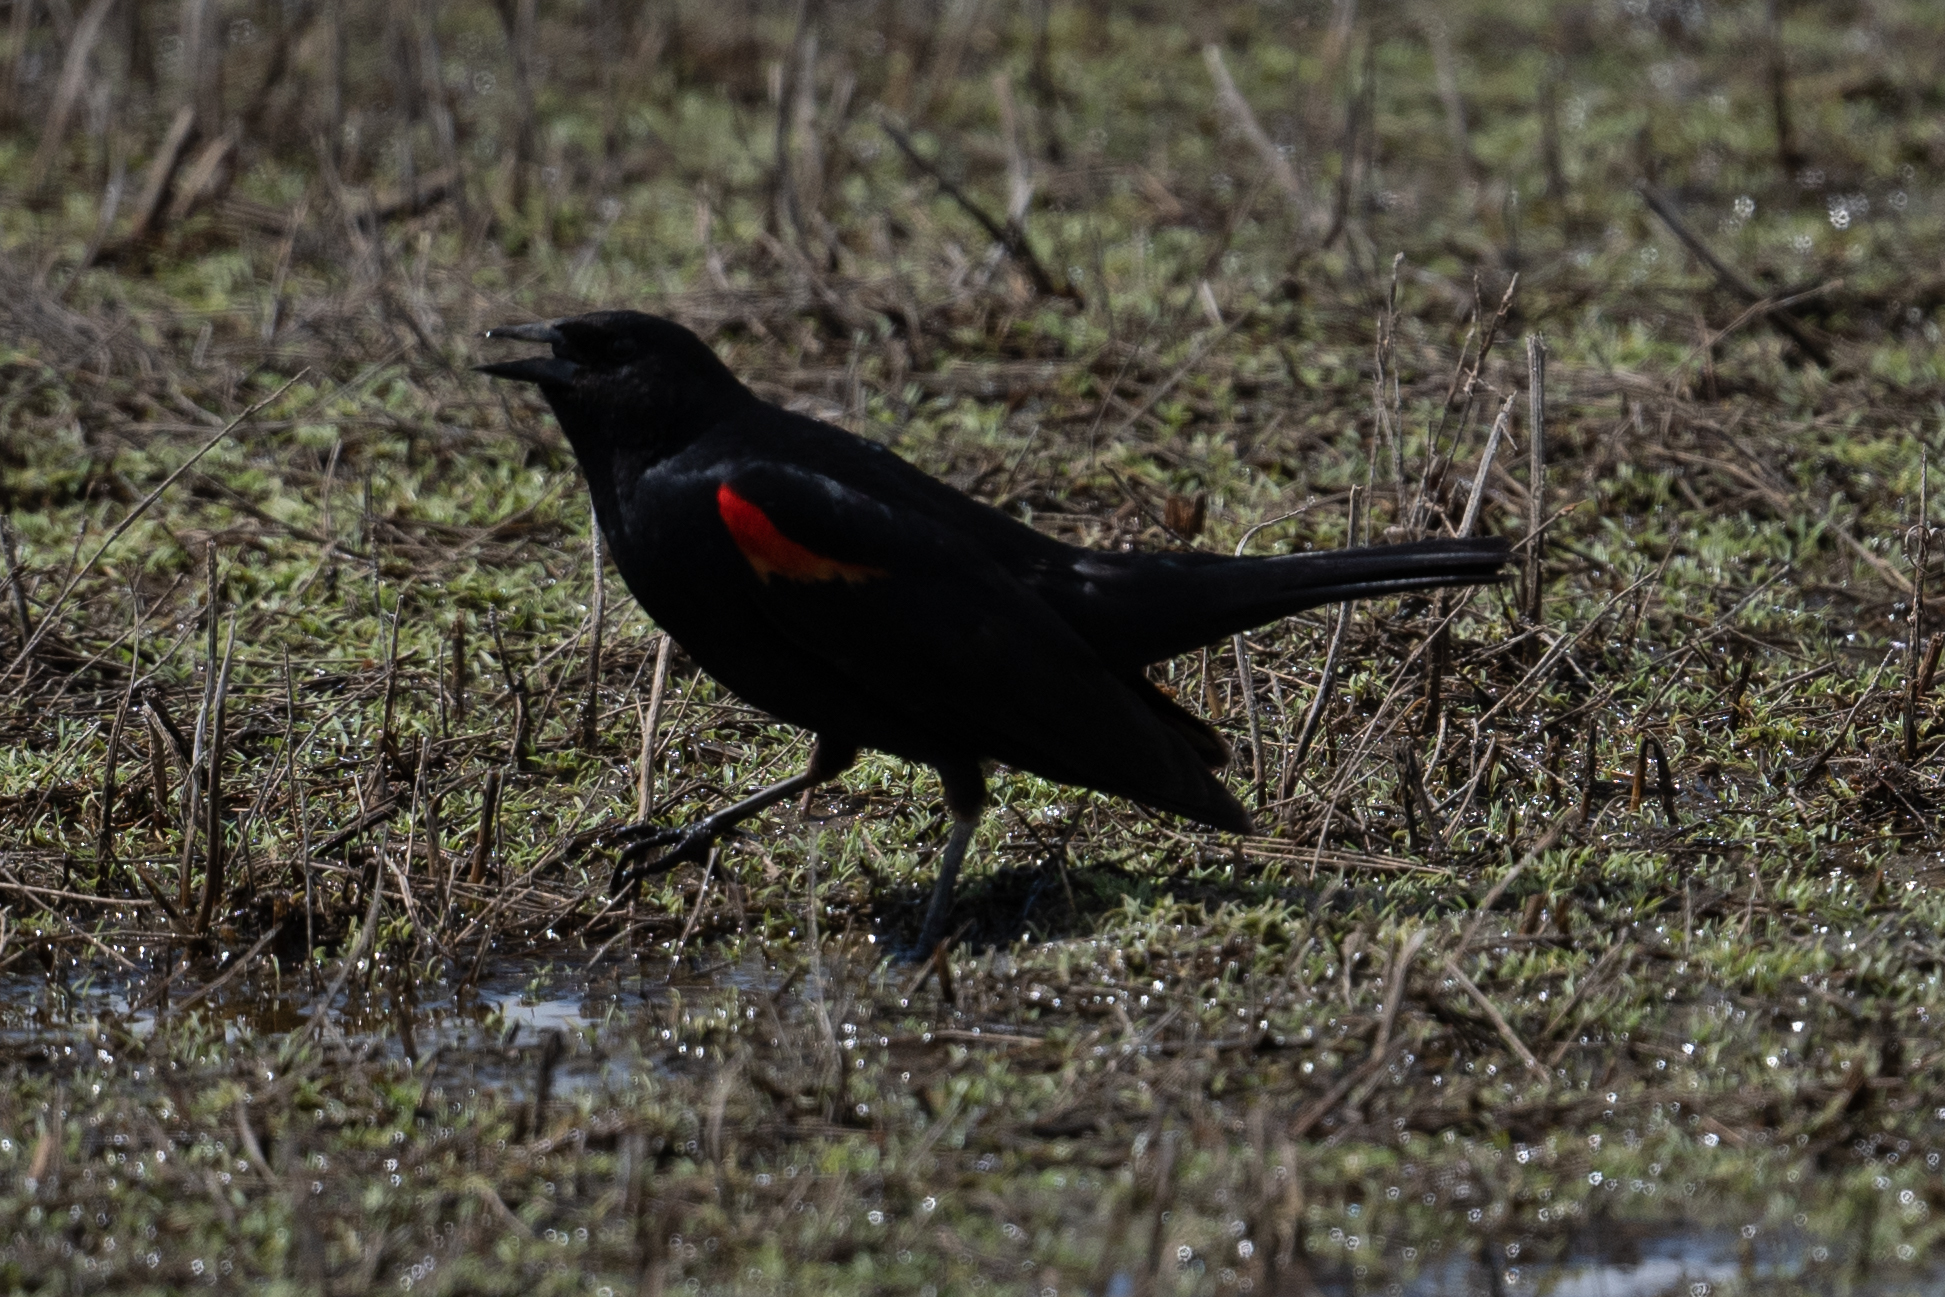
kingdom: Animalia
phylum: Chordata
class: Aves
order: Passeriformes
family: Icteridae
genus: Agelaius
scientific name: Agelaius phoeniceus
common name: Red-winged blackbird
